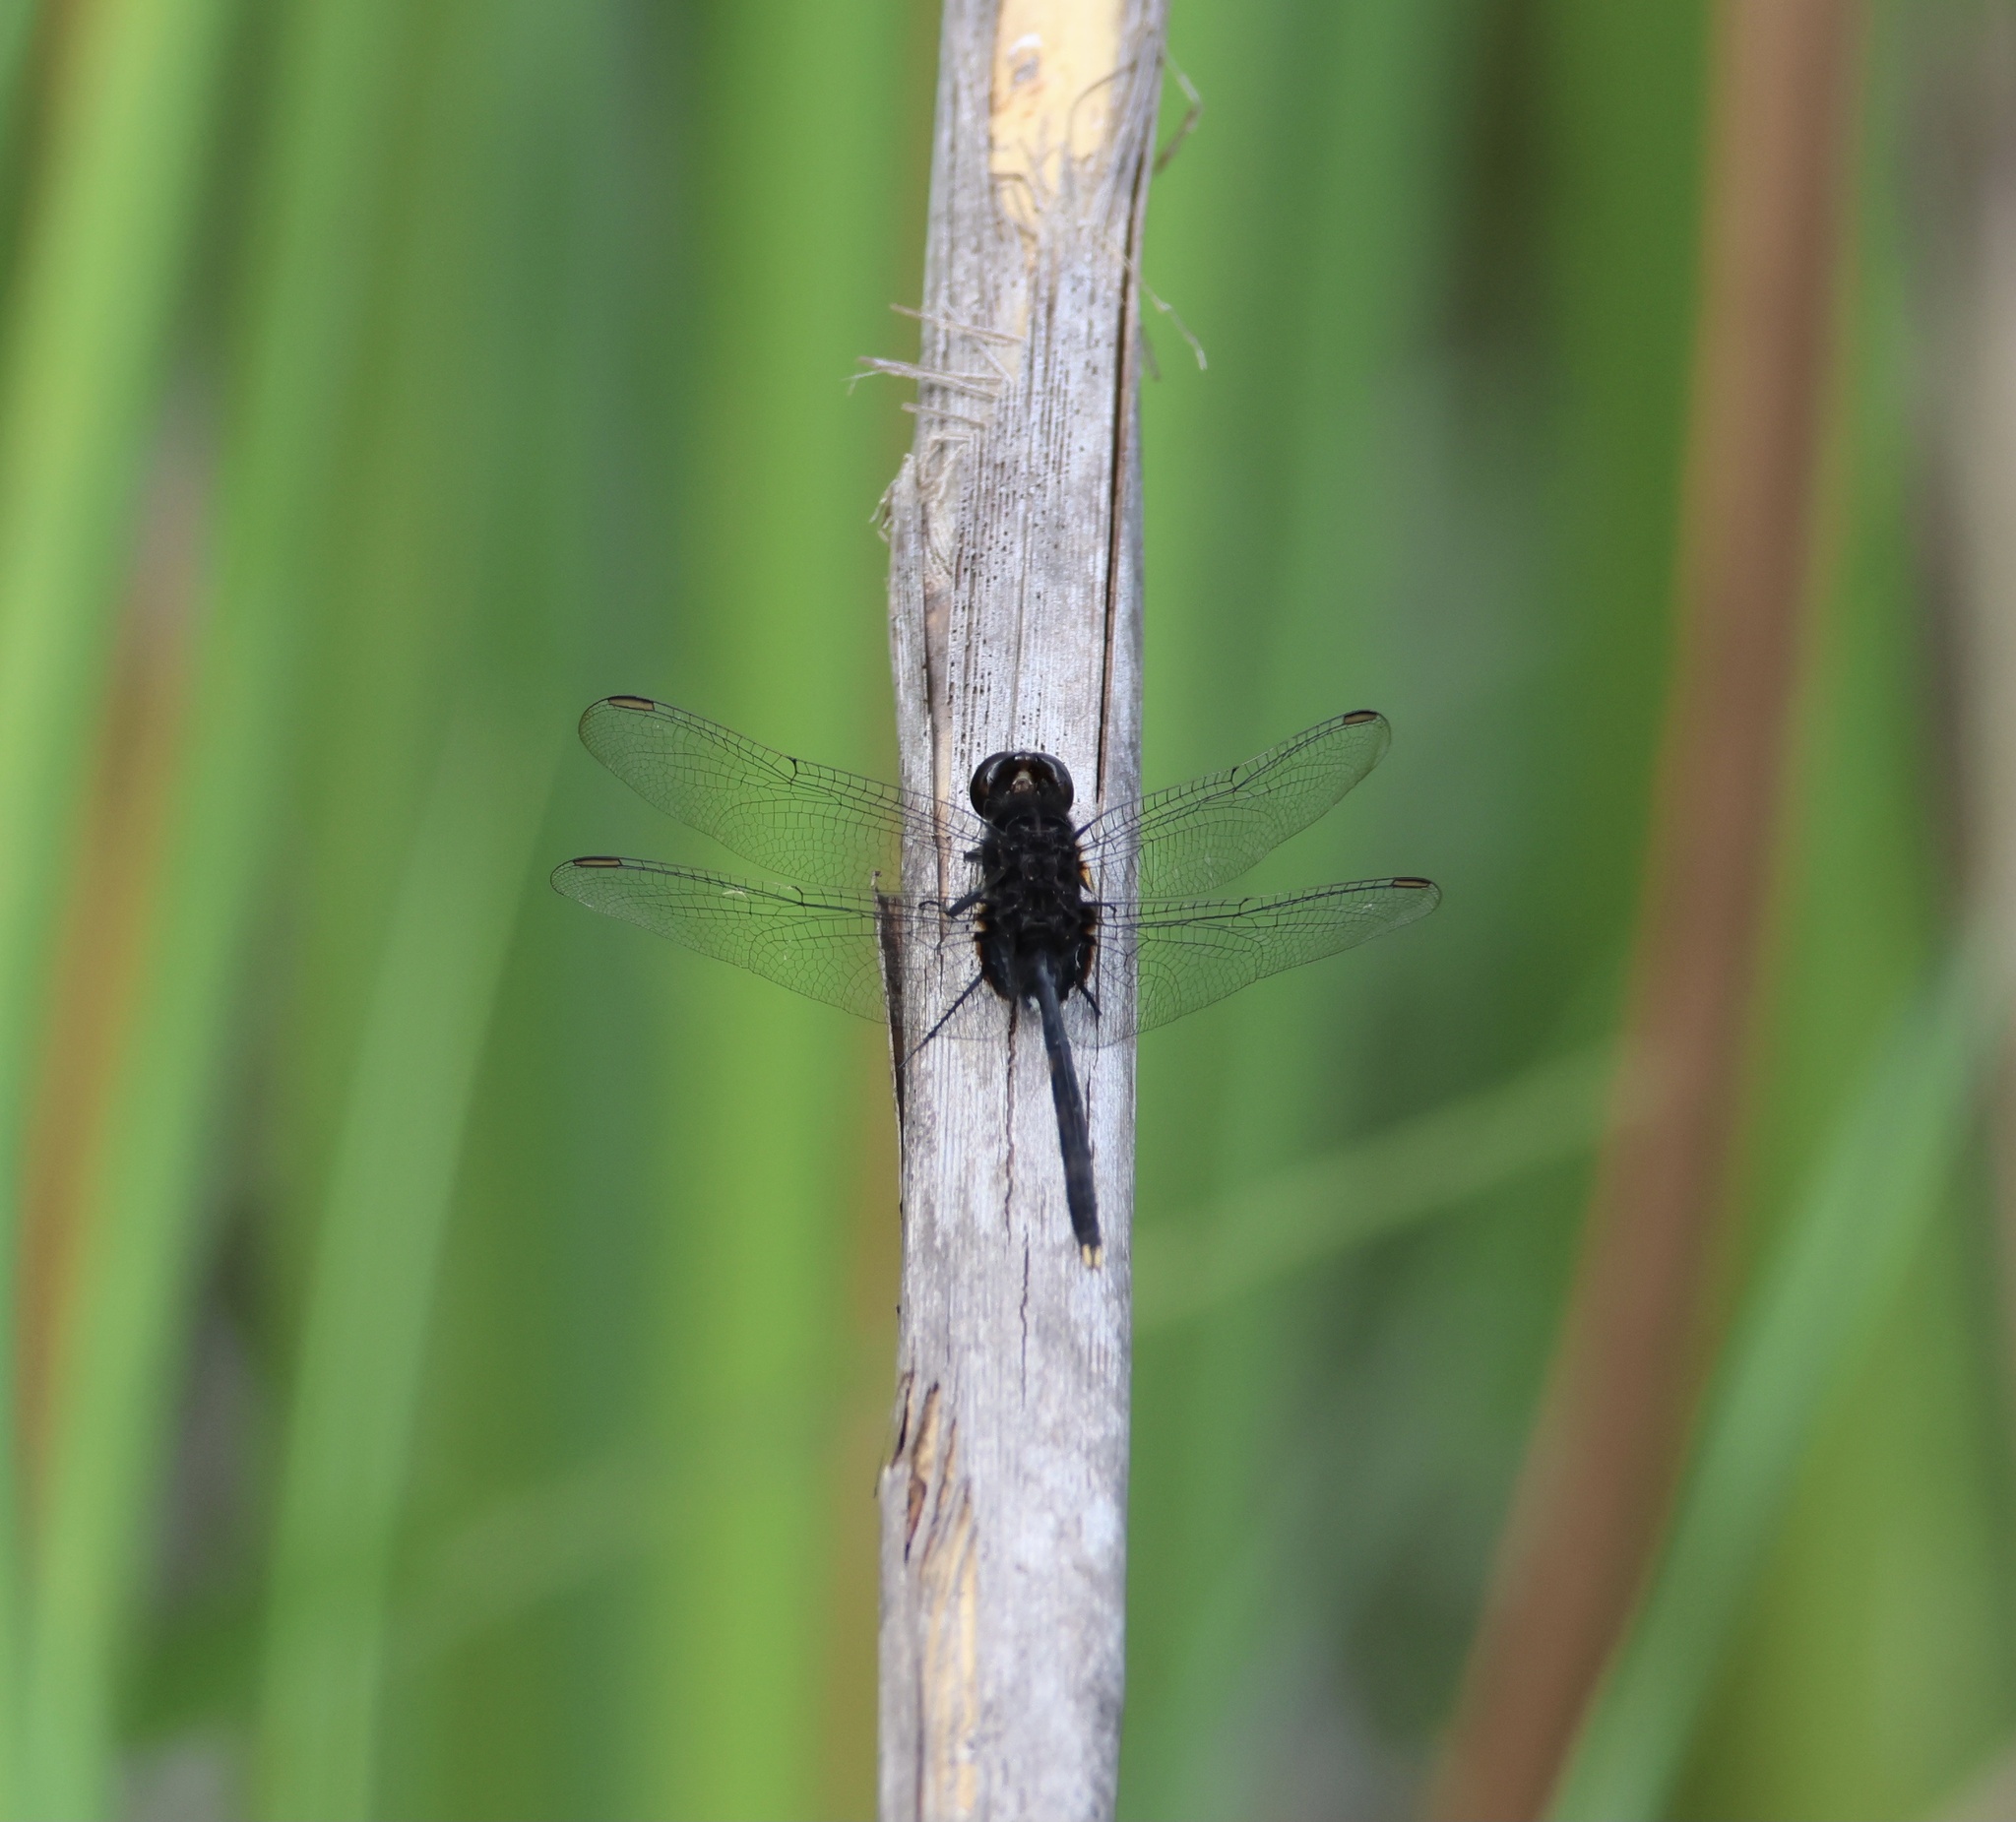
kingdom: Animalia
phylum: Arthropoda
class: Insecta
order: Odonata
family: Libellulidae
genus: Erythemis
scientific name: Erythemis plebeja
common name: Pin-tailed pondhawk
